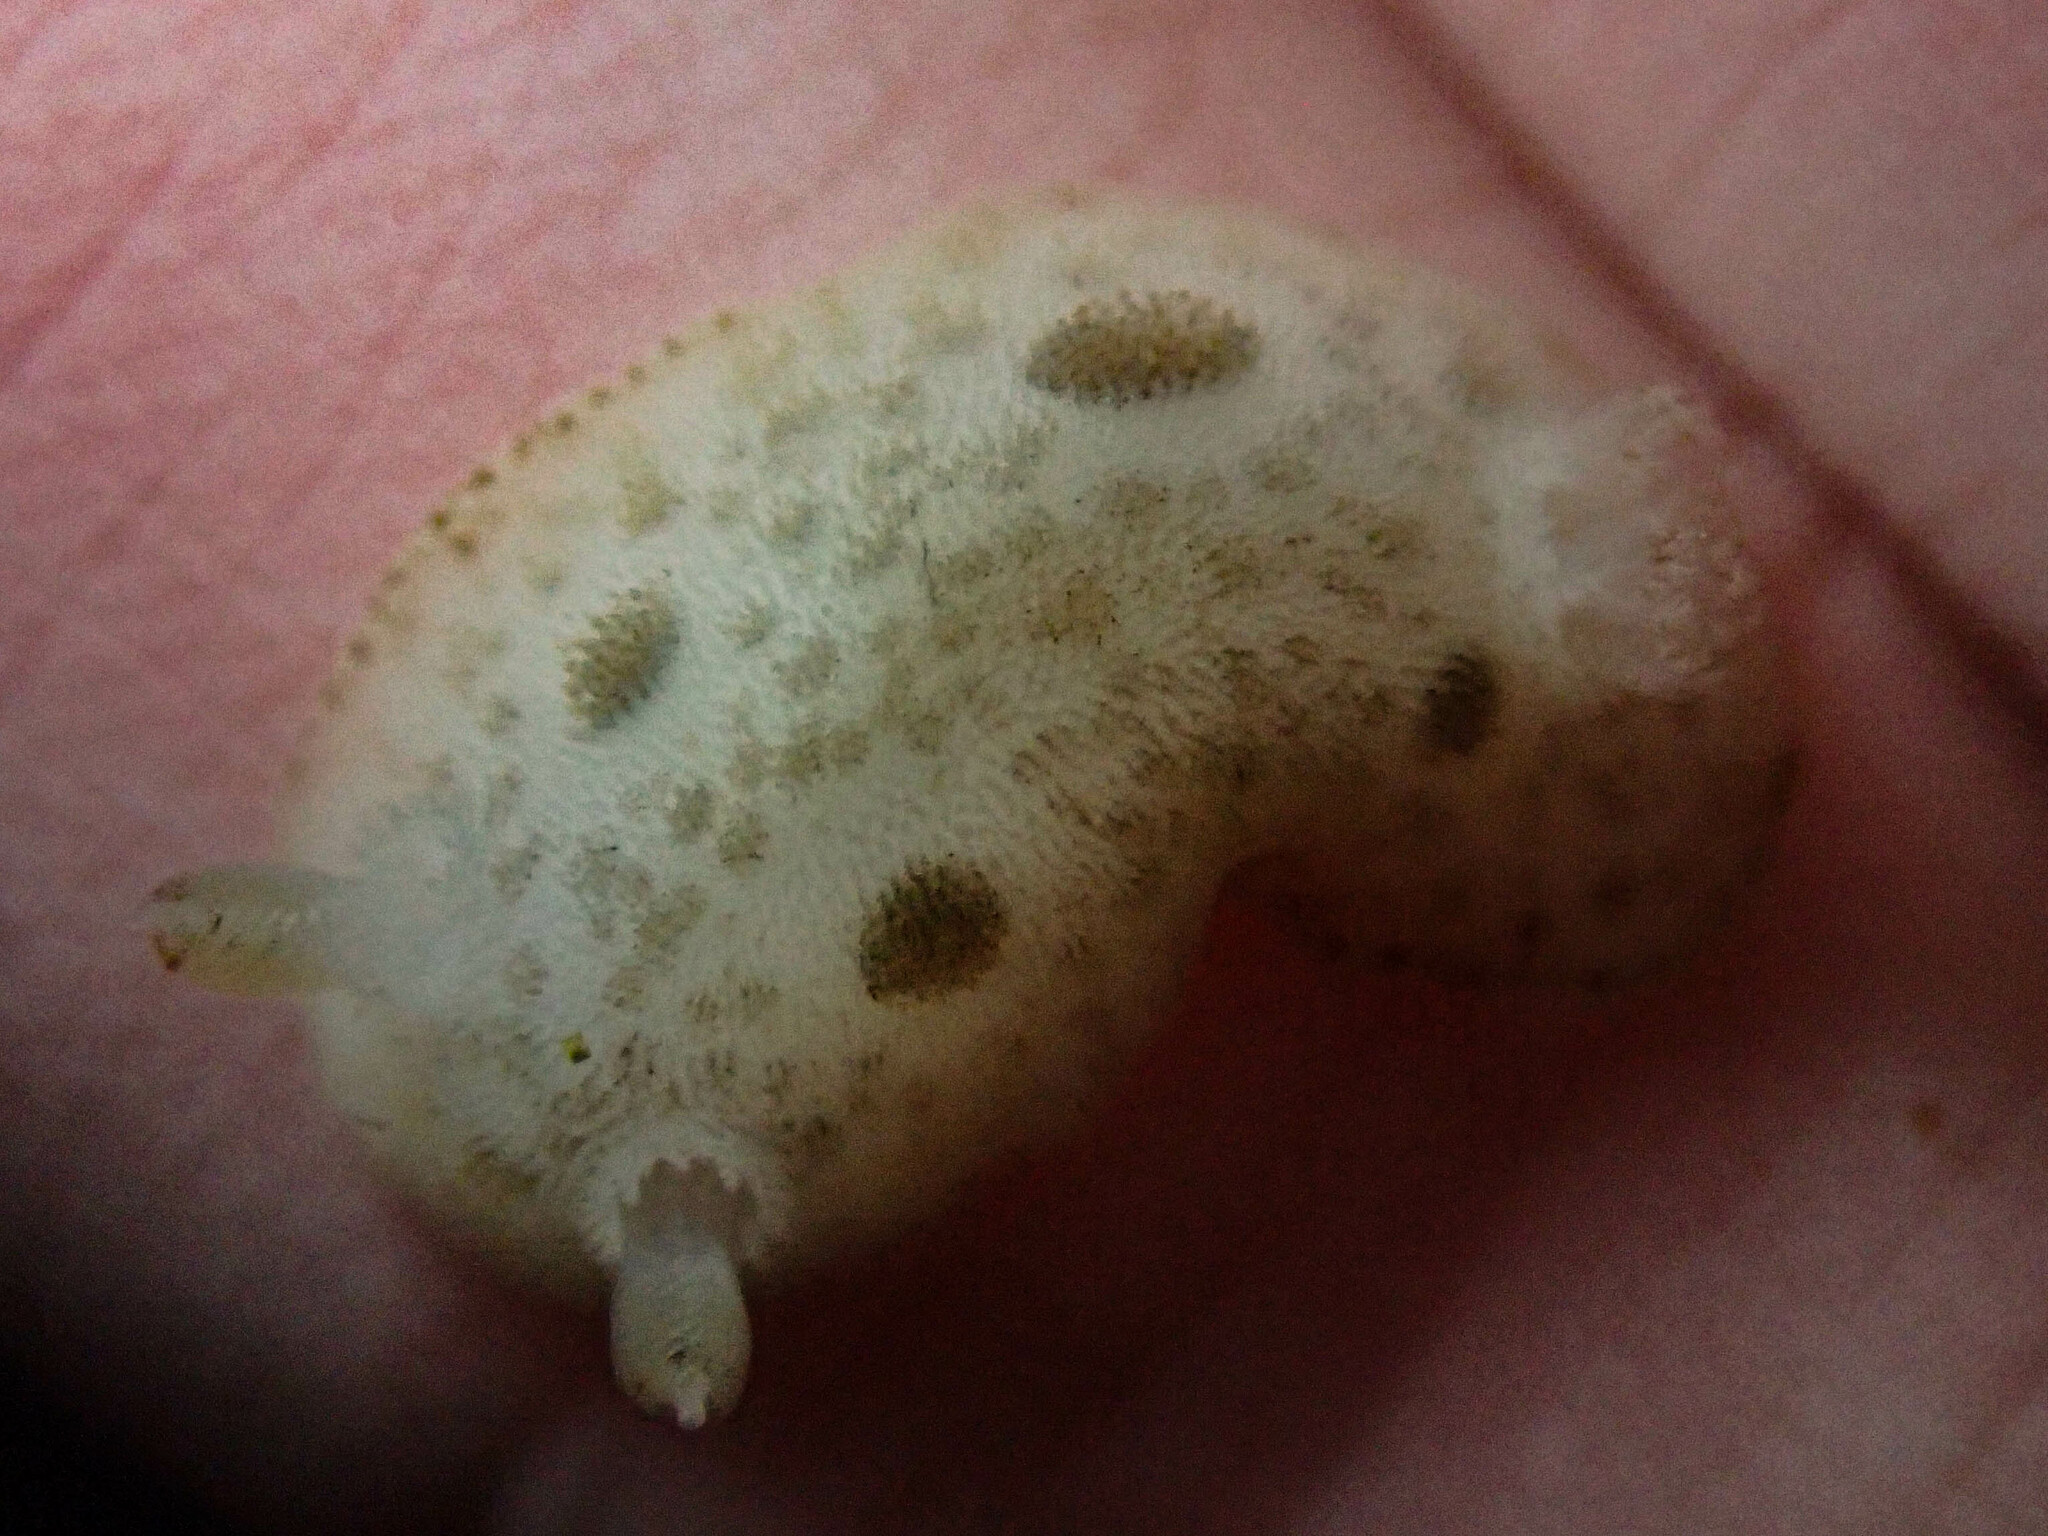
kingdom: Animalia
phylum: Mollusca
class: Gastropoda
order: Nudibranchia
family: Discodorididae
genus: Diaulula
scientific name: Diaulula sandiegensis
